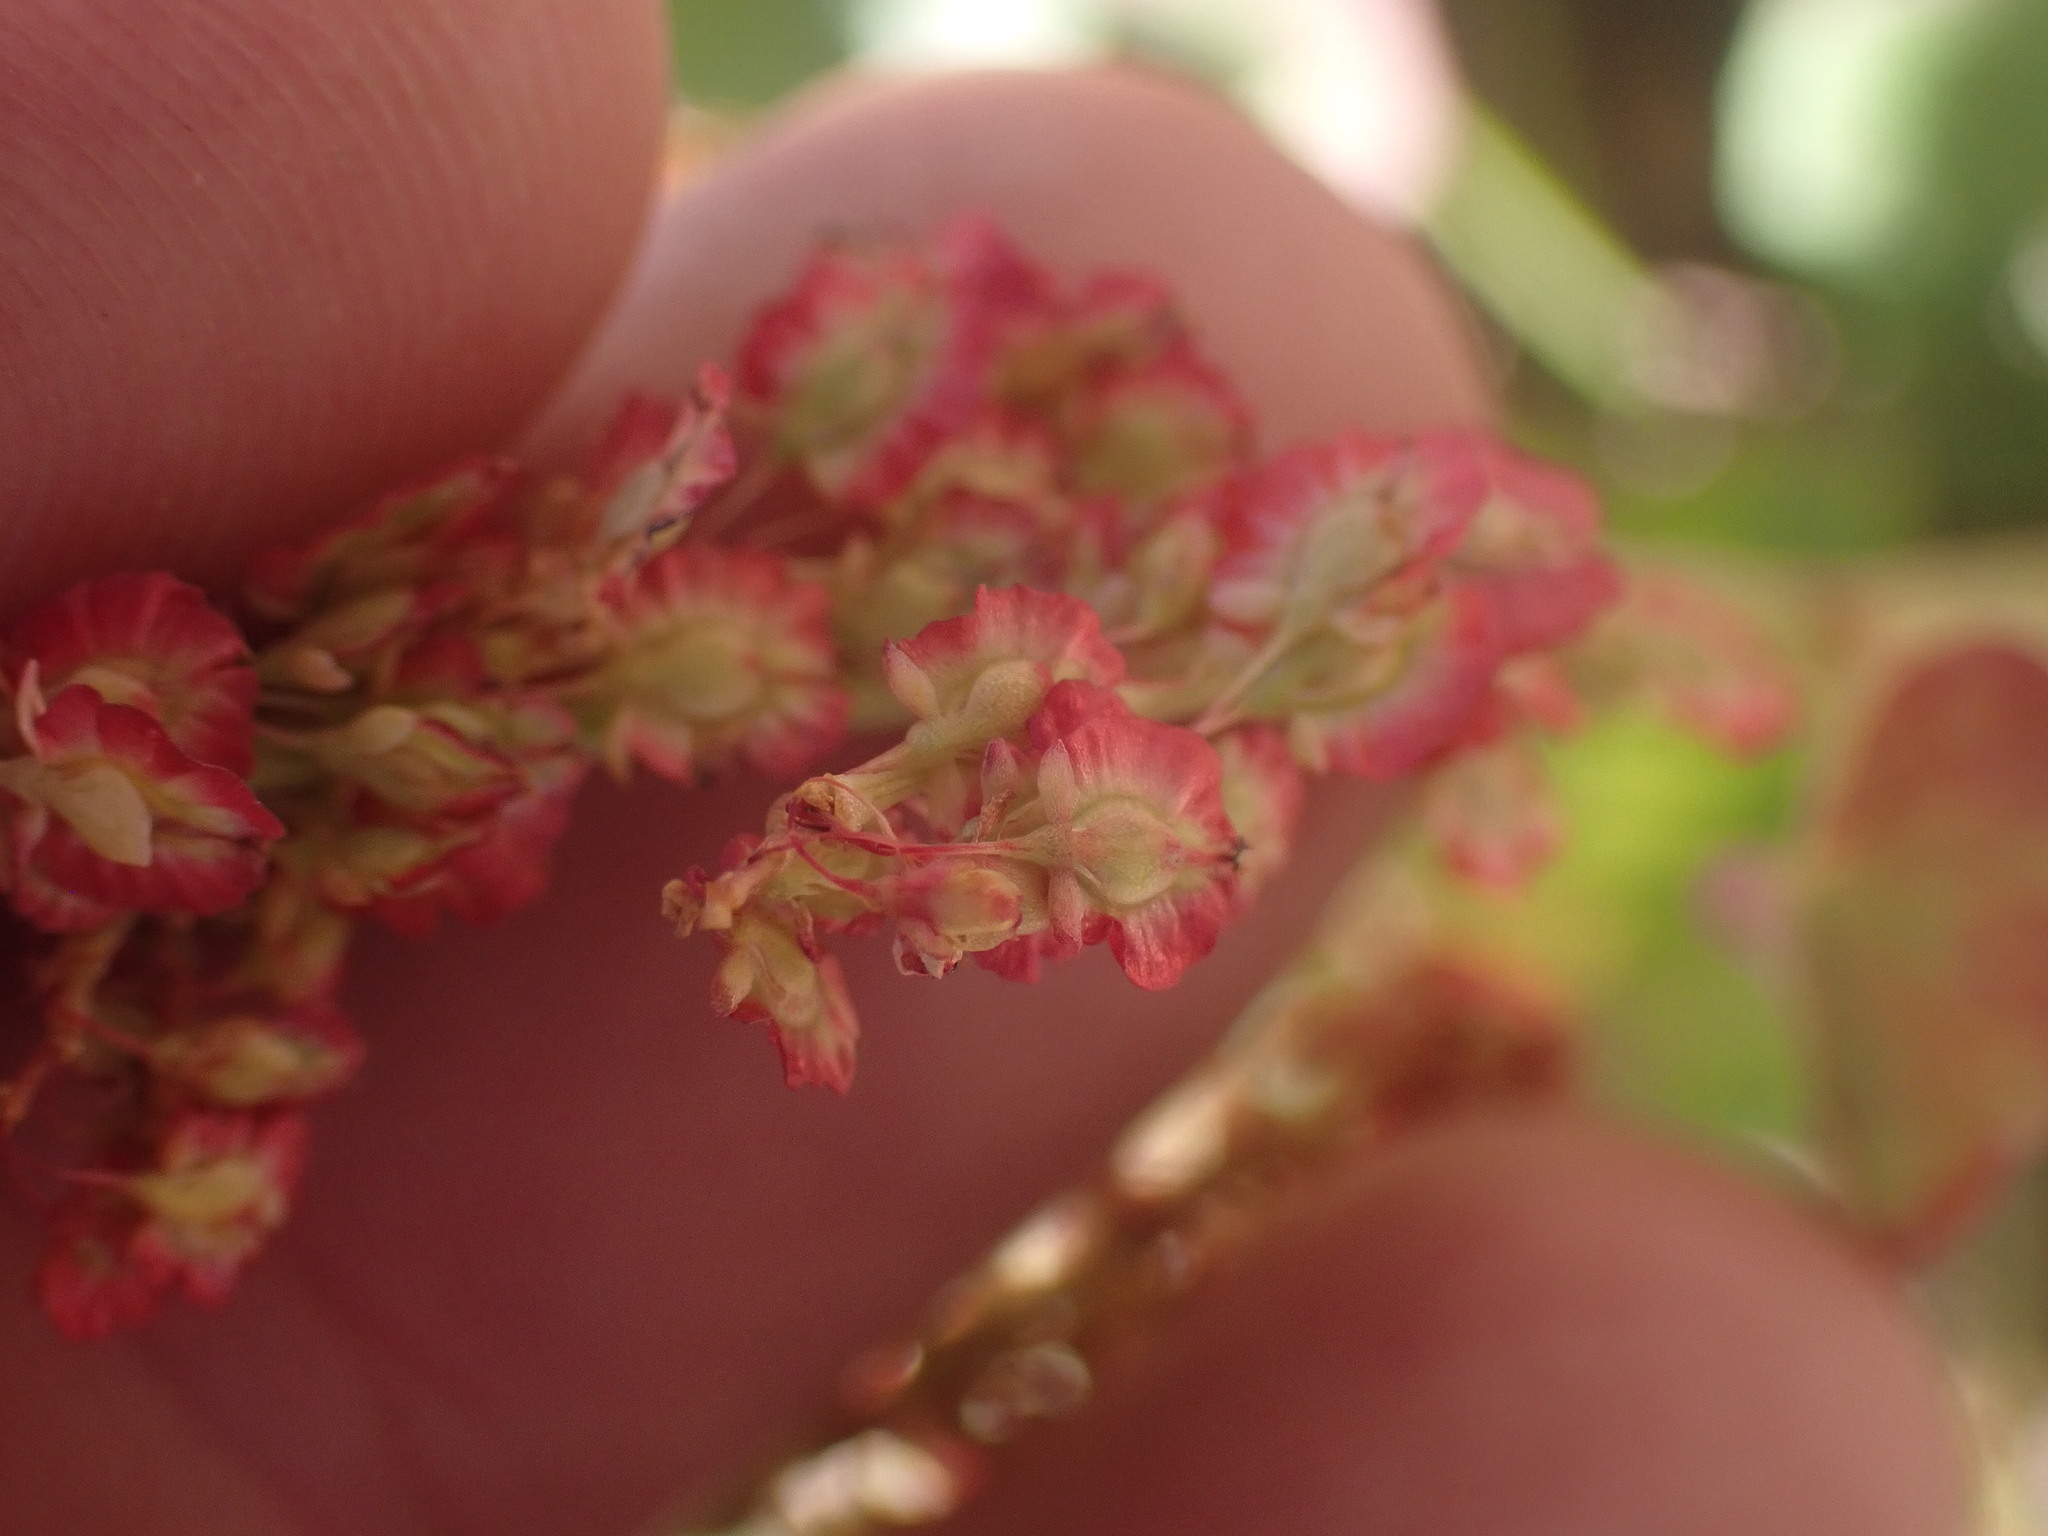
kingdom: Plantae
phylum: Tracheophyta
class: Magnoliopsida
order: Caryophyllales
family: Polygonaceae
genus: Oxyria
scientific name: Oxyria digyna
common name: Alpine mountain-sorrel
